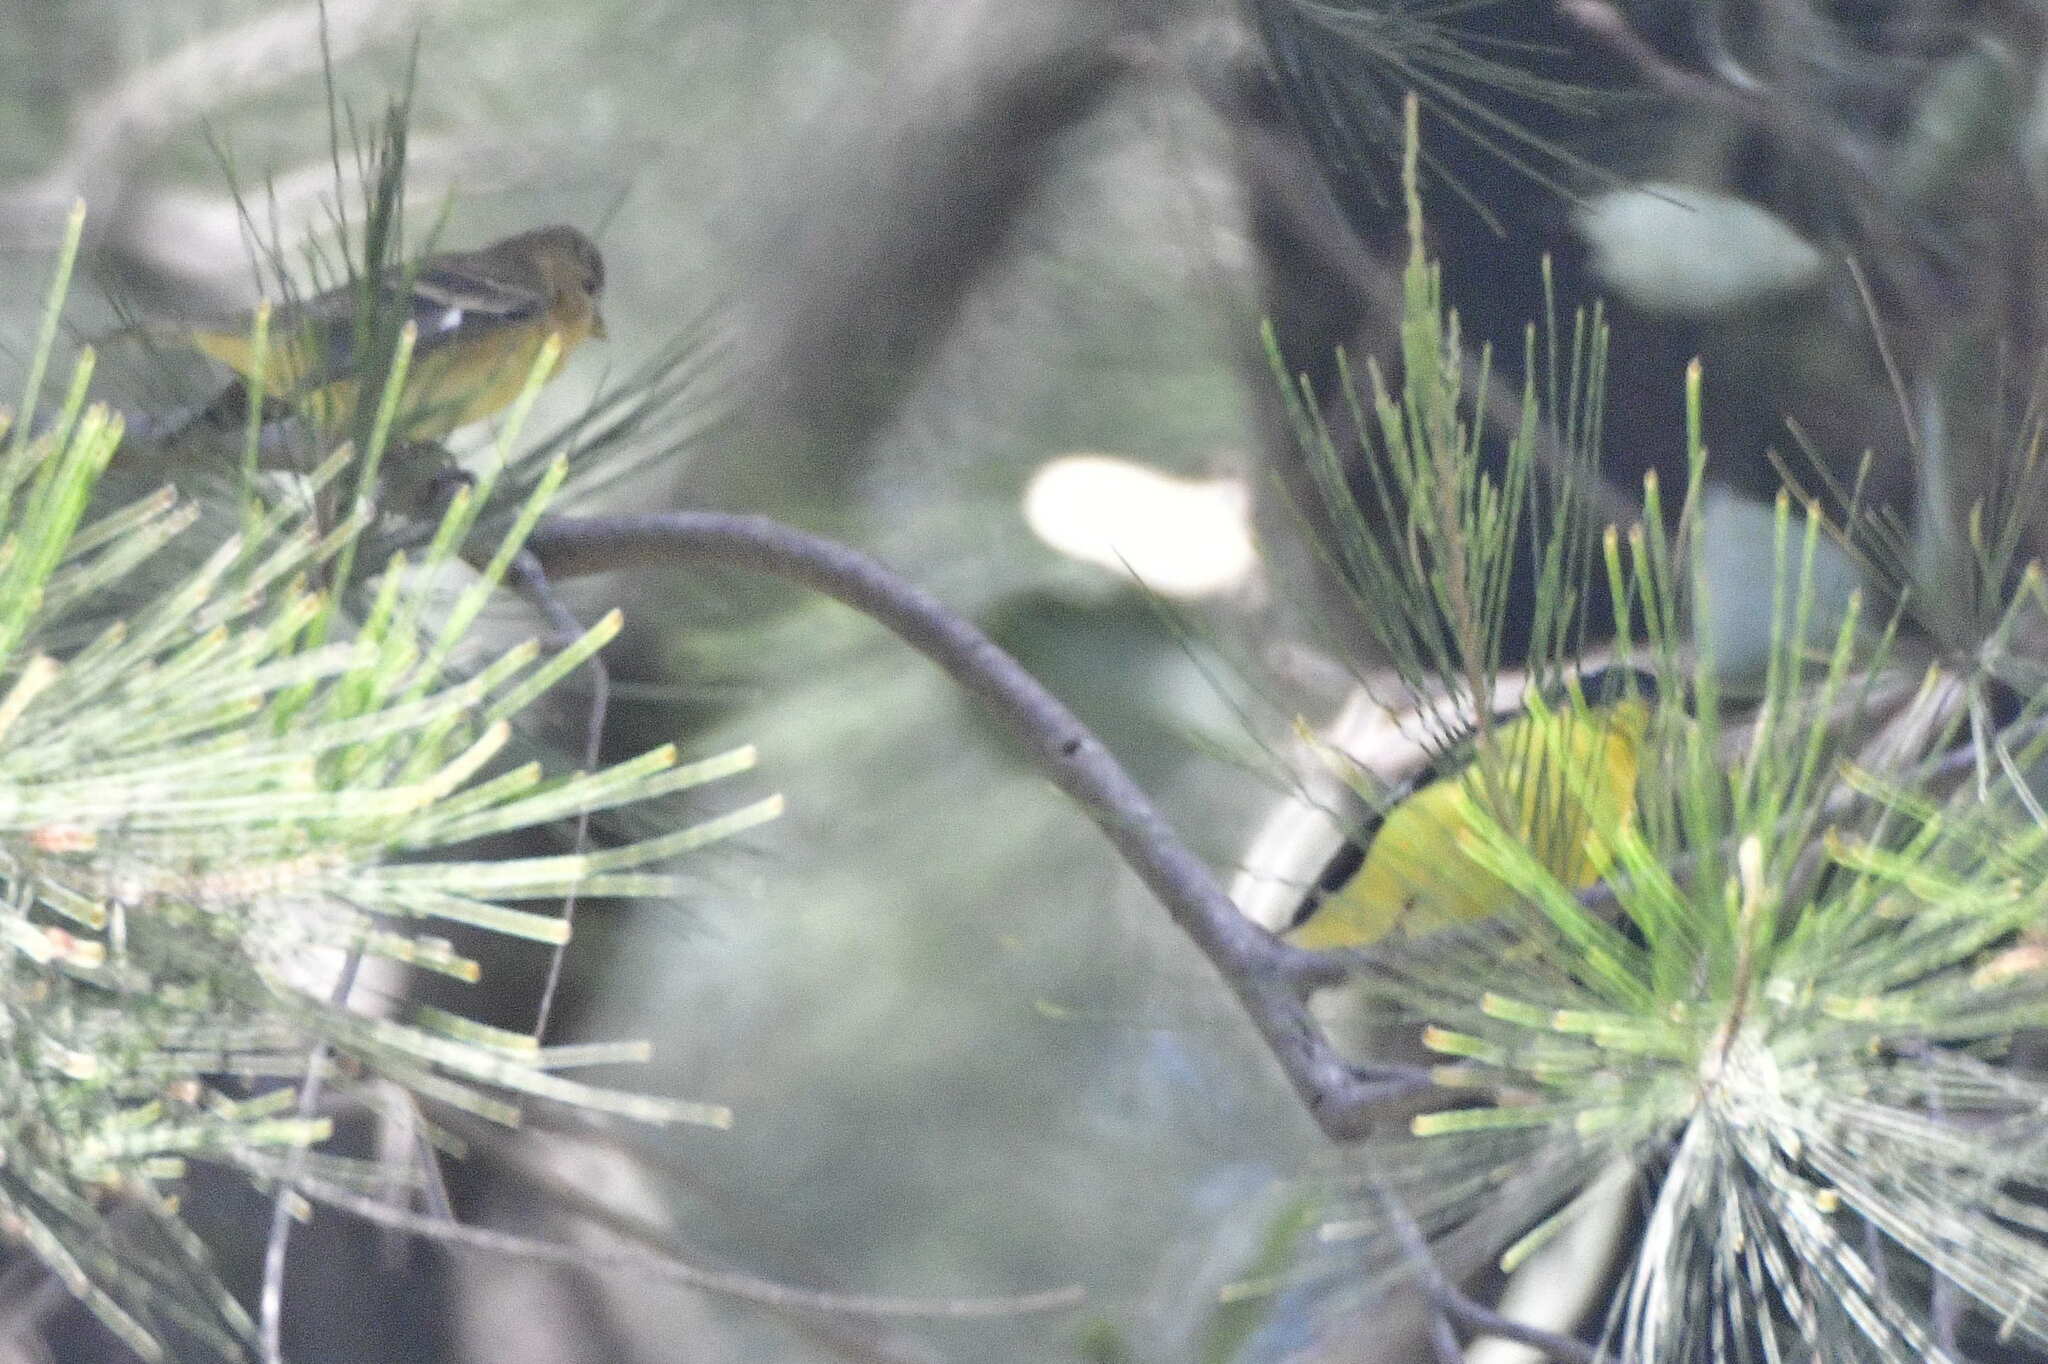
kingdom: Animalia
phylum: Chordata
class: Aves
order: Passeriformes
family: Fringillidae
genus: Spinus
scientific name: Spinus psaltria
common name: Lesser goldfinch
